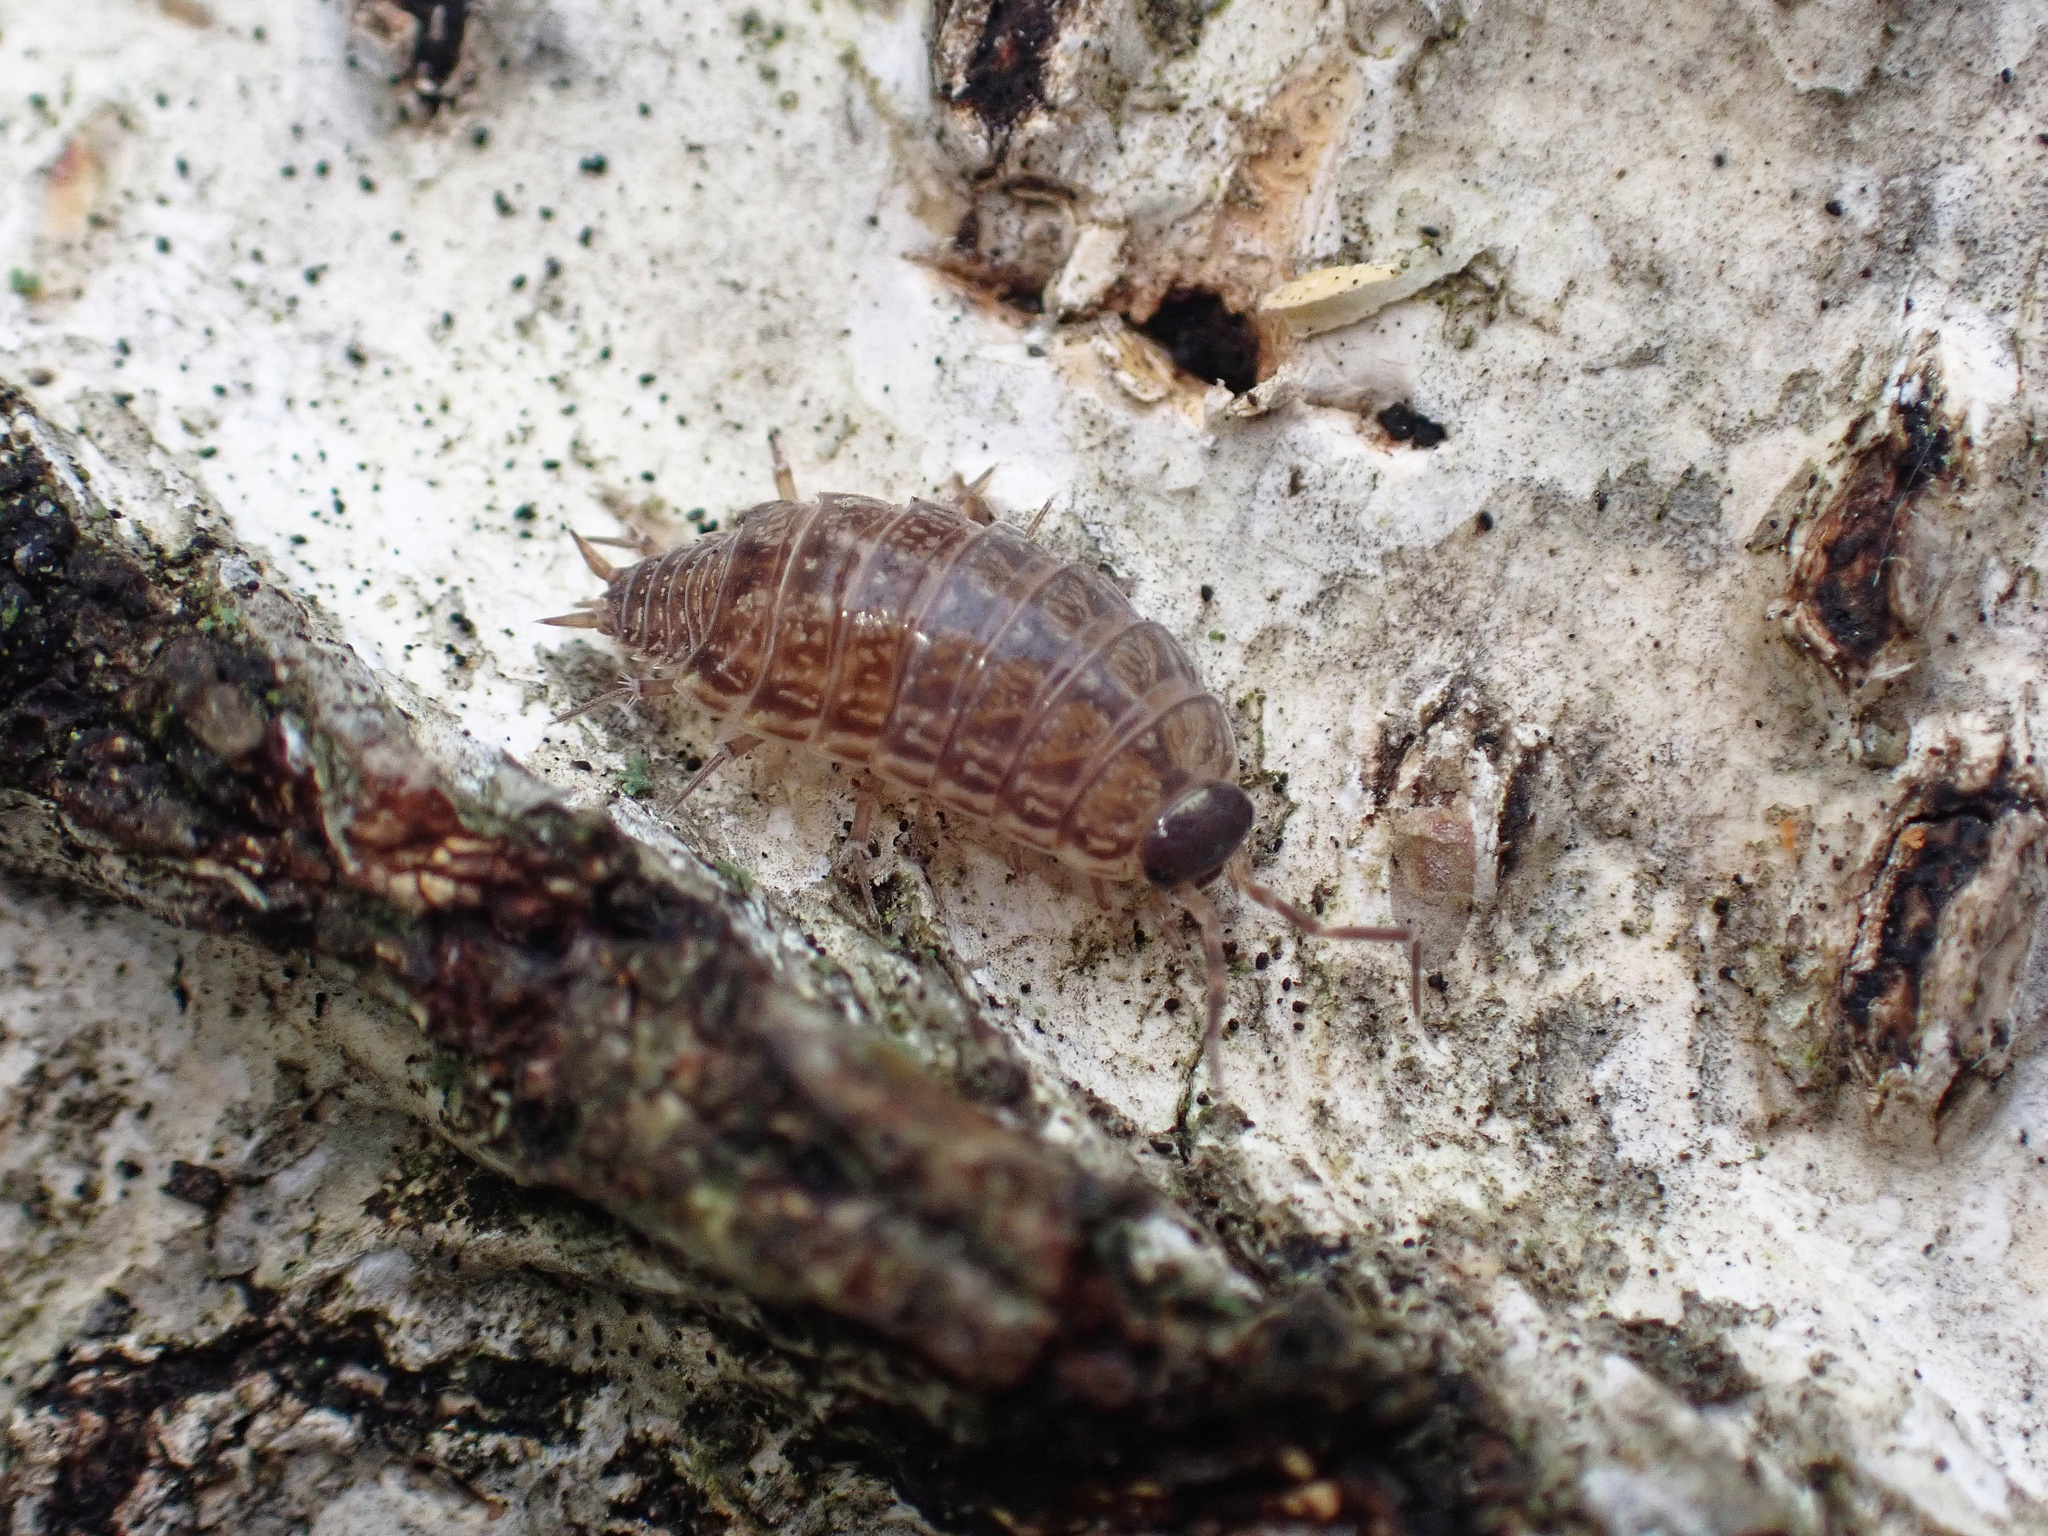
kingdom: Animalia
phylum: Arthropoda
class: Malacostraca
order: Isopoda
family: Philosciidae
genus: Philoscia
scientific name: Philoscia muscorum
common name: Common striped woodlouse
